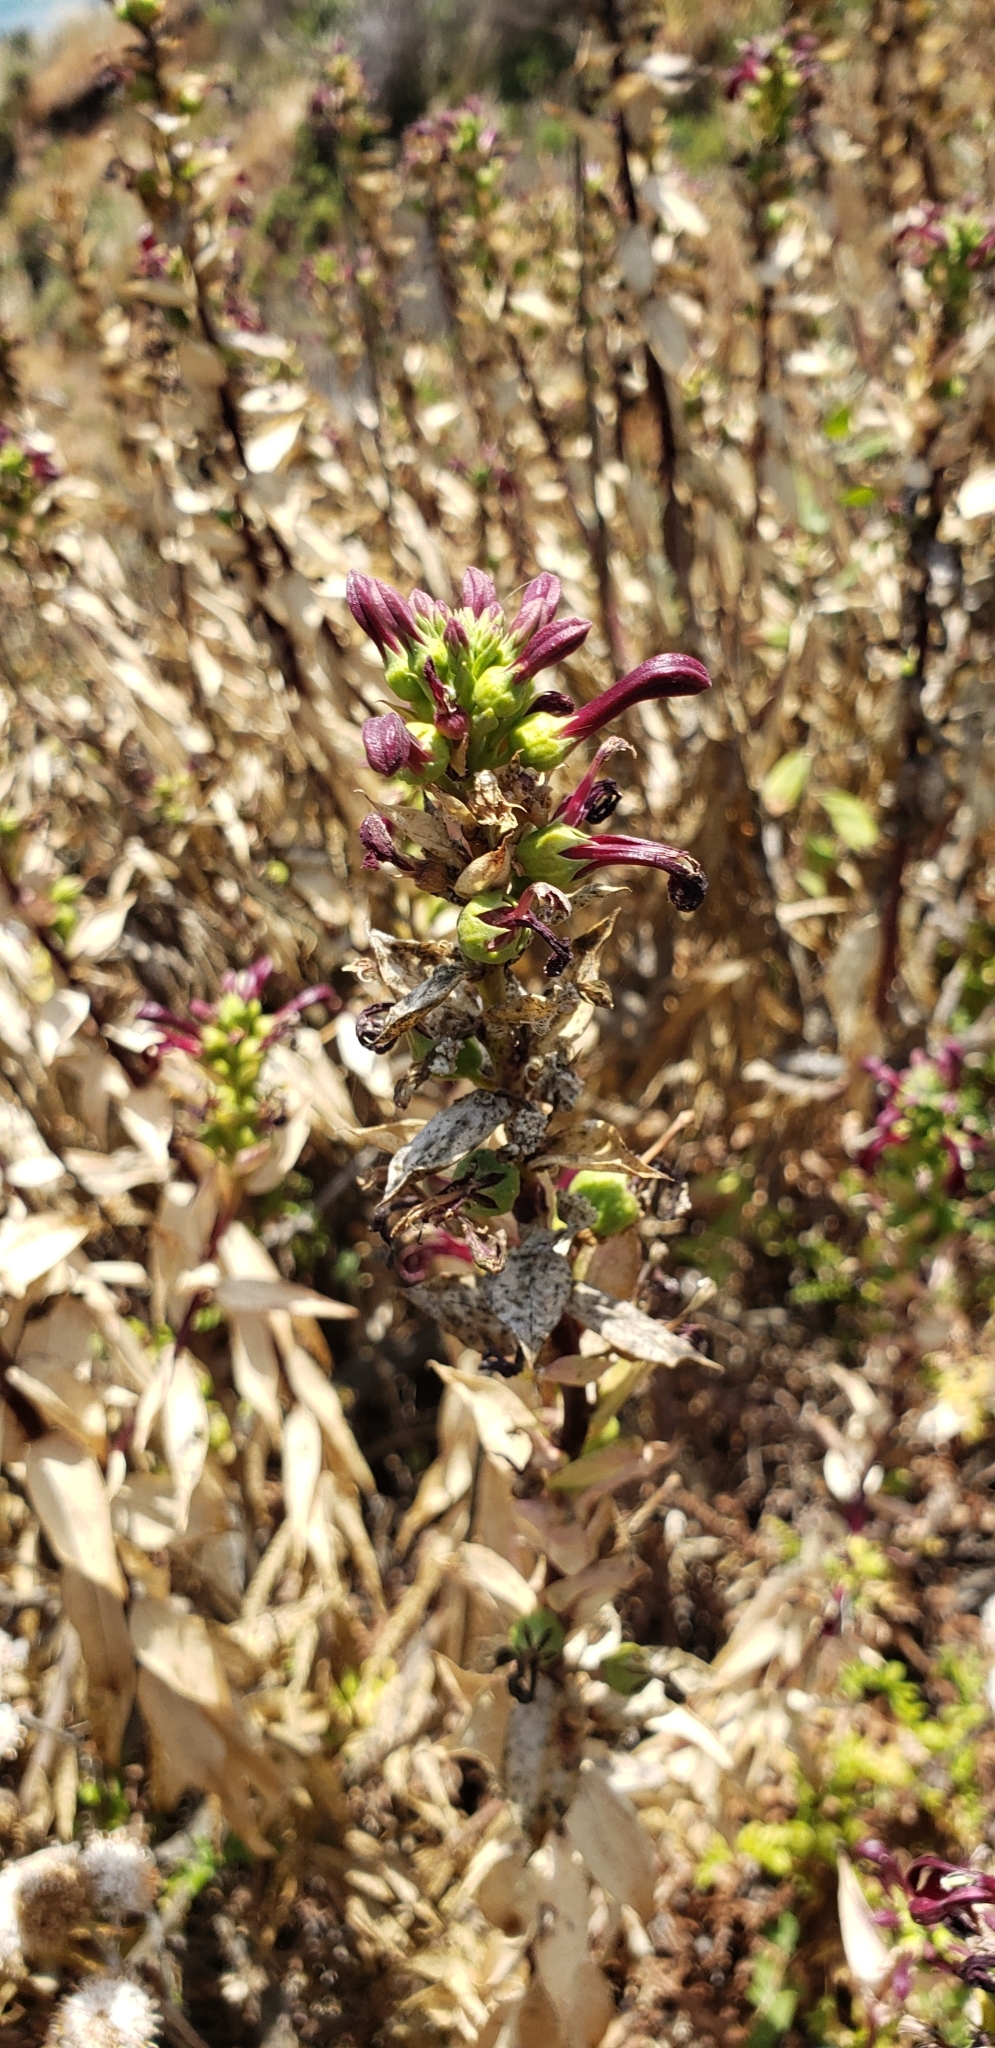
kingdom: Plantae
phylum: Tracheophyta
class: Magnoliopsida
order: Asterales
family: Campanulaceae
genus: Lobelia
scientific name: Lobelia polyphylla
